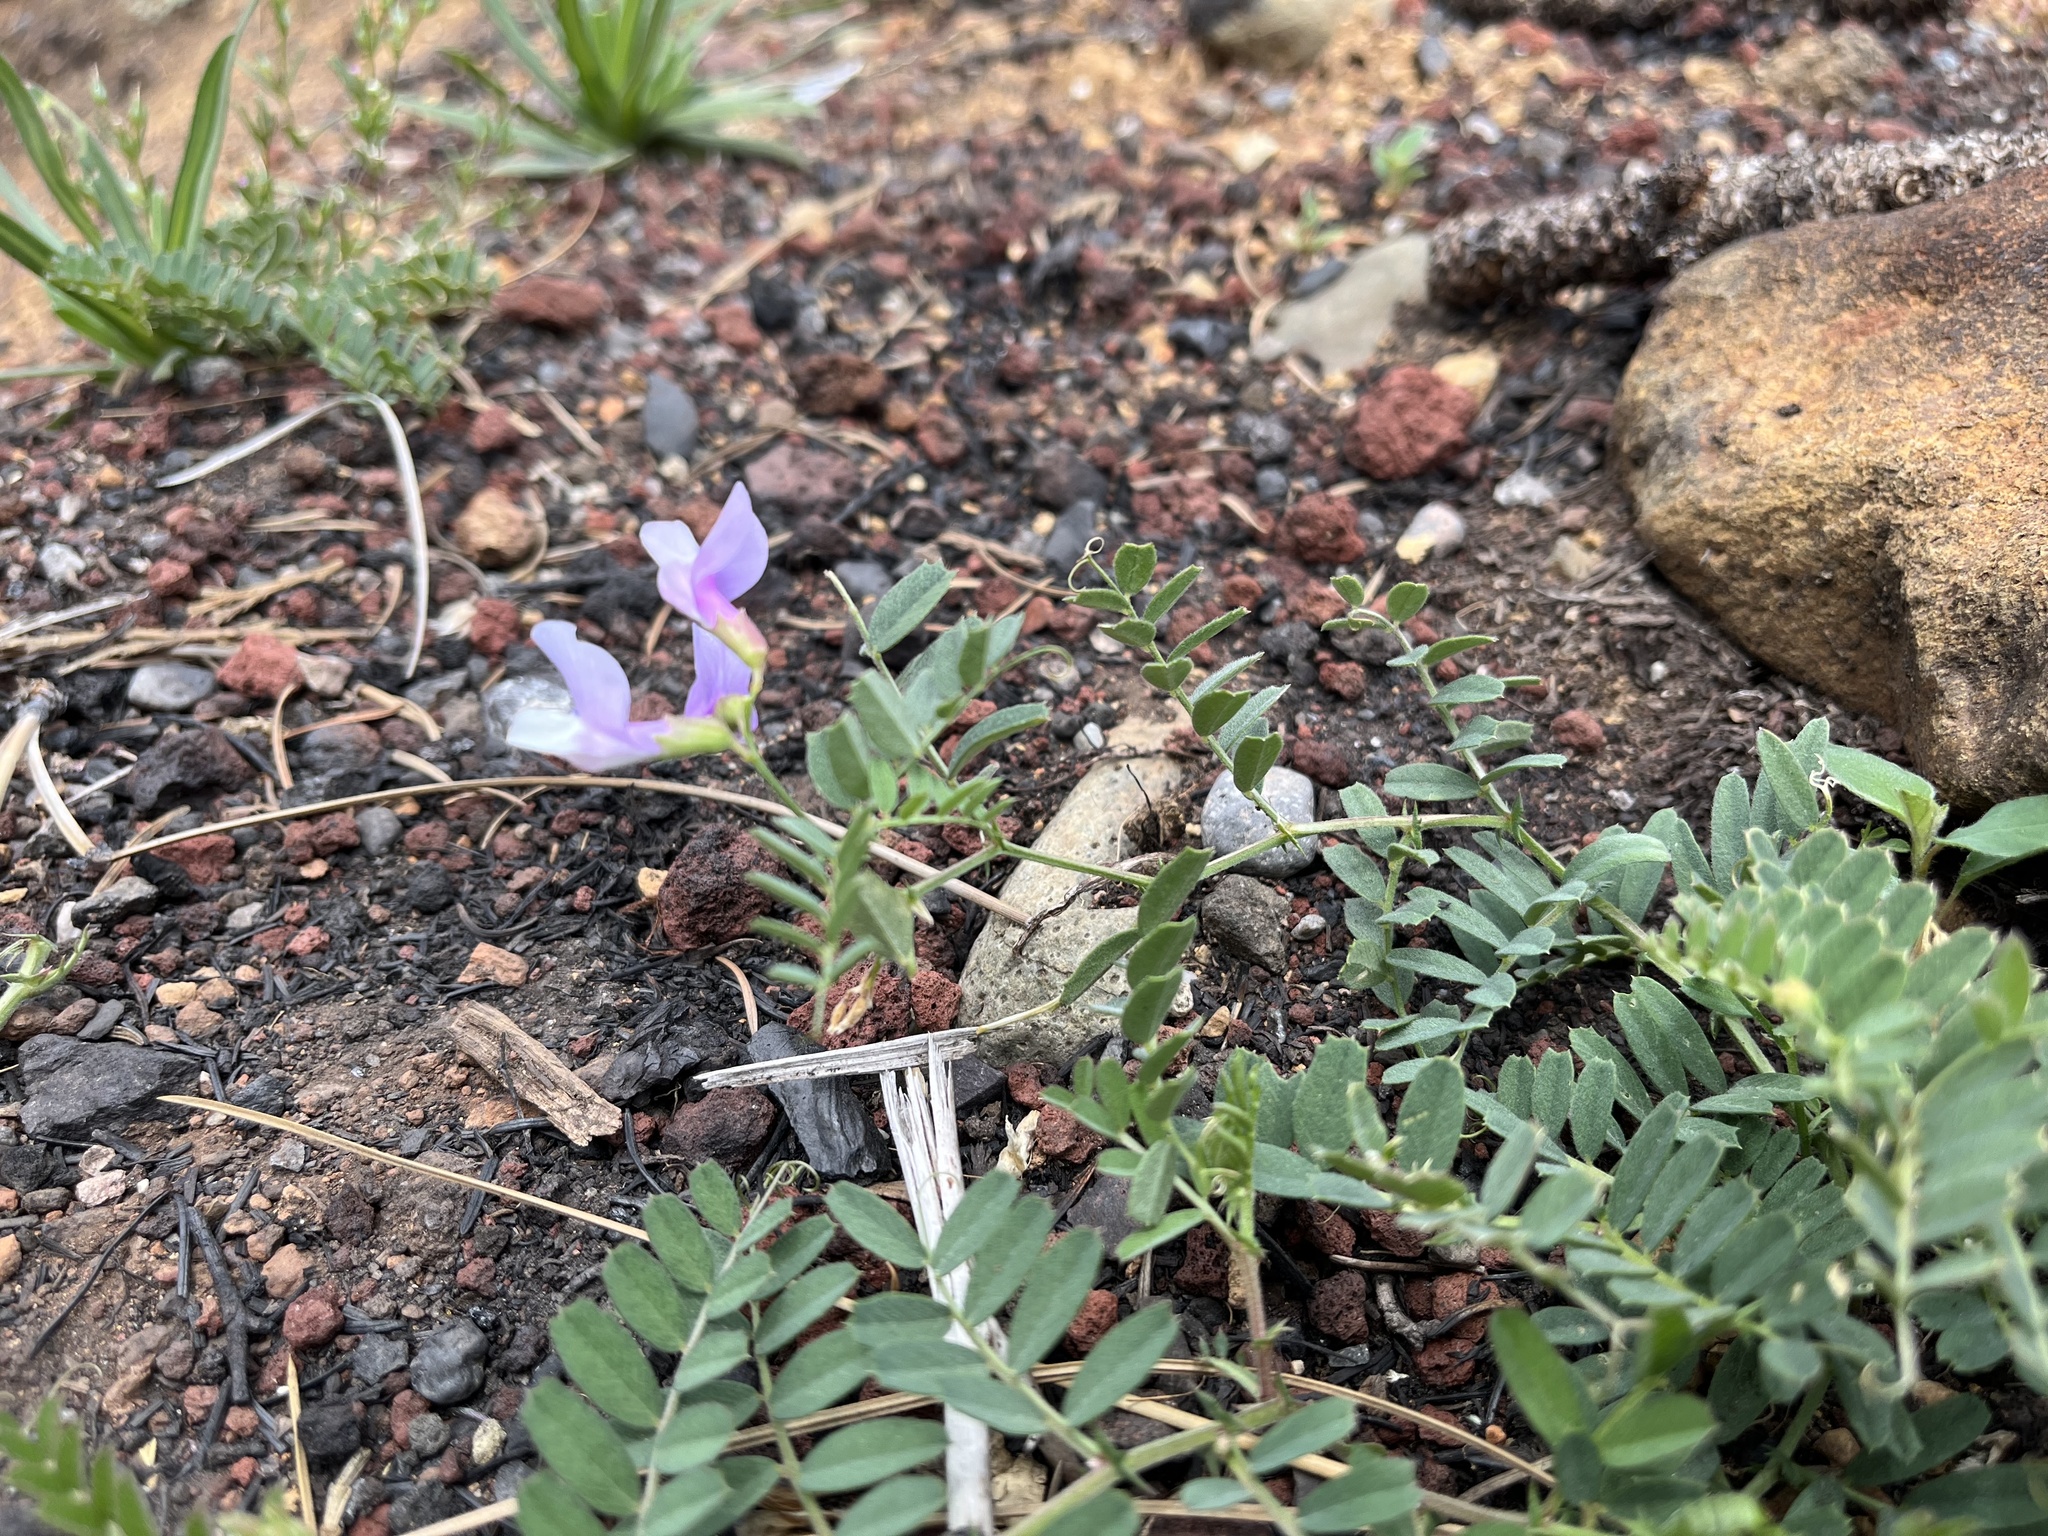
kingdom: Plantae
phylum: Tracheophyta
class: Magnoliopsida
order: Fabales
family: Fabaceae
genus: Vicia
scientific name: Vicia americana
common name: American vetch
